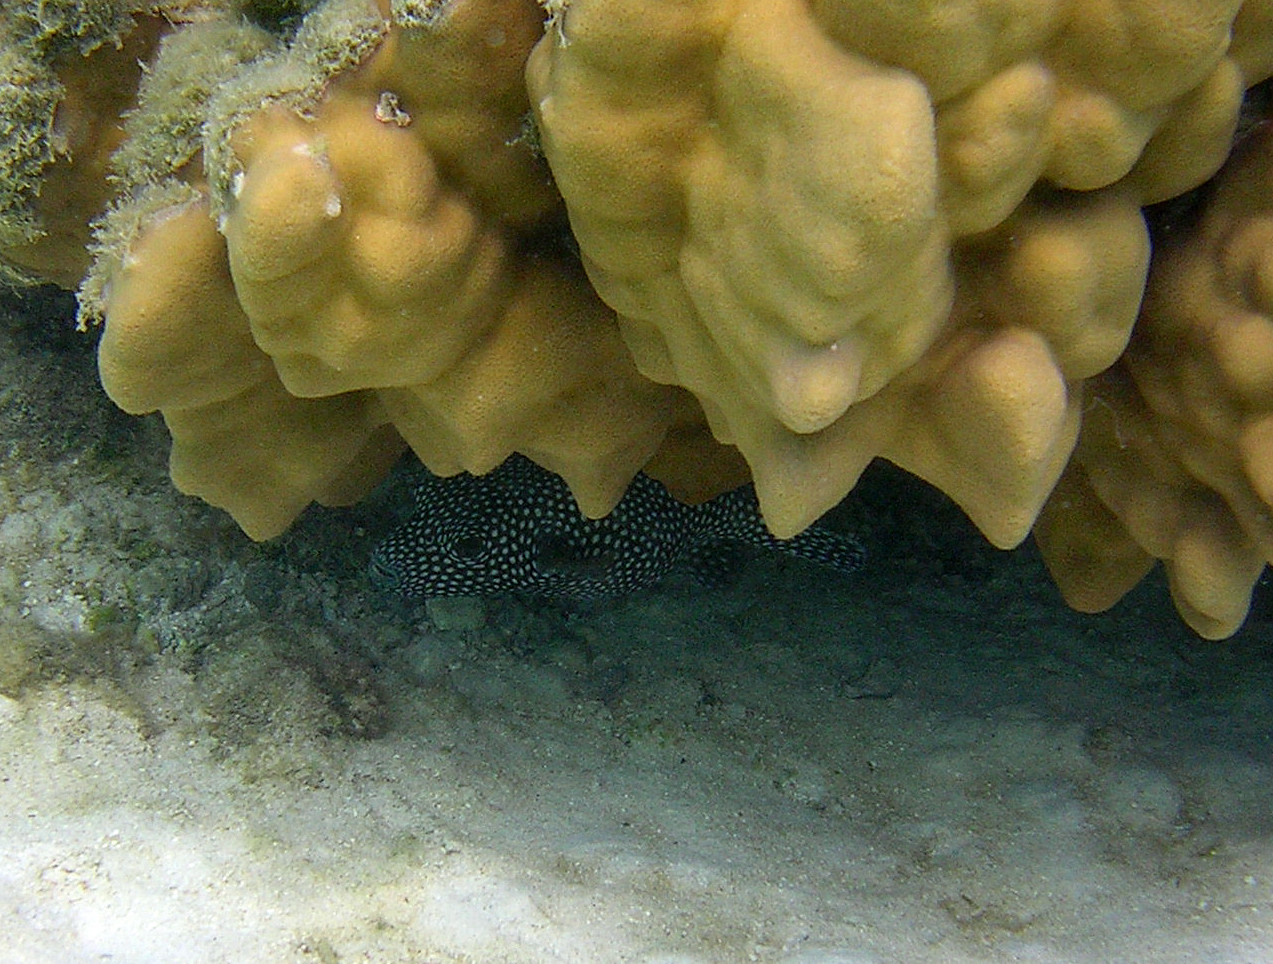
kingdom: Animalia
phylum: Chordata
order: Tetraodontiformes
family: Tetraodontidae
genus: Arothron
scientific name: Arothron meleagris
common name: Guinea-fowl pufferfish
